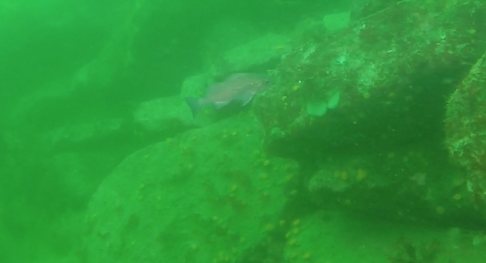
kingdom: Animalia
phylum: Chordata
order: Scorpaeniformes
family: Sebastidae
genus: Sebastes
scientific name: Sebastes mystinus
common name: Blue rockfish
